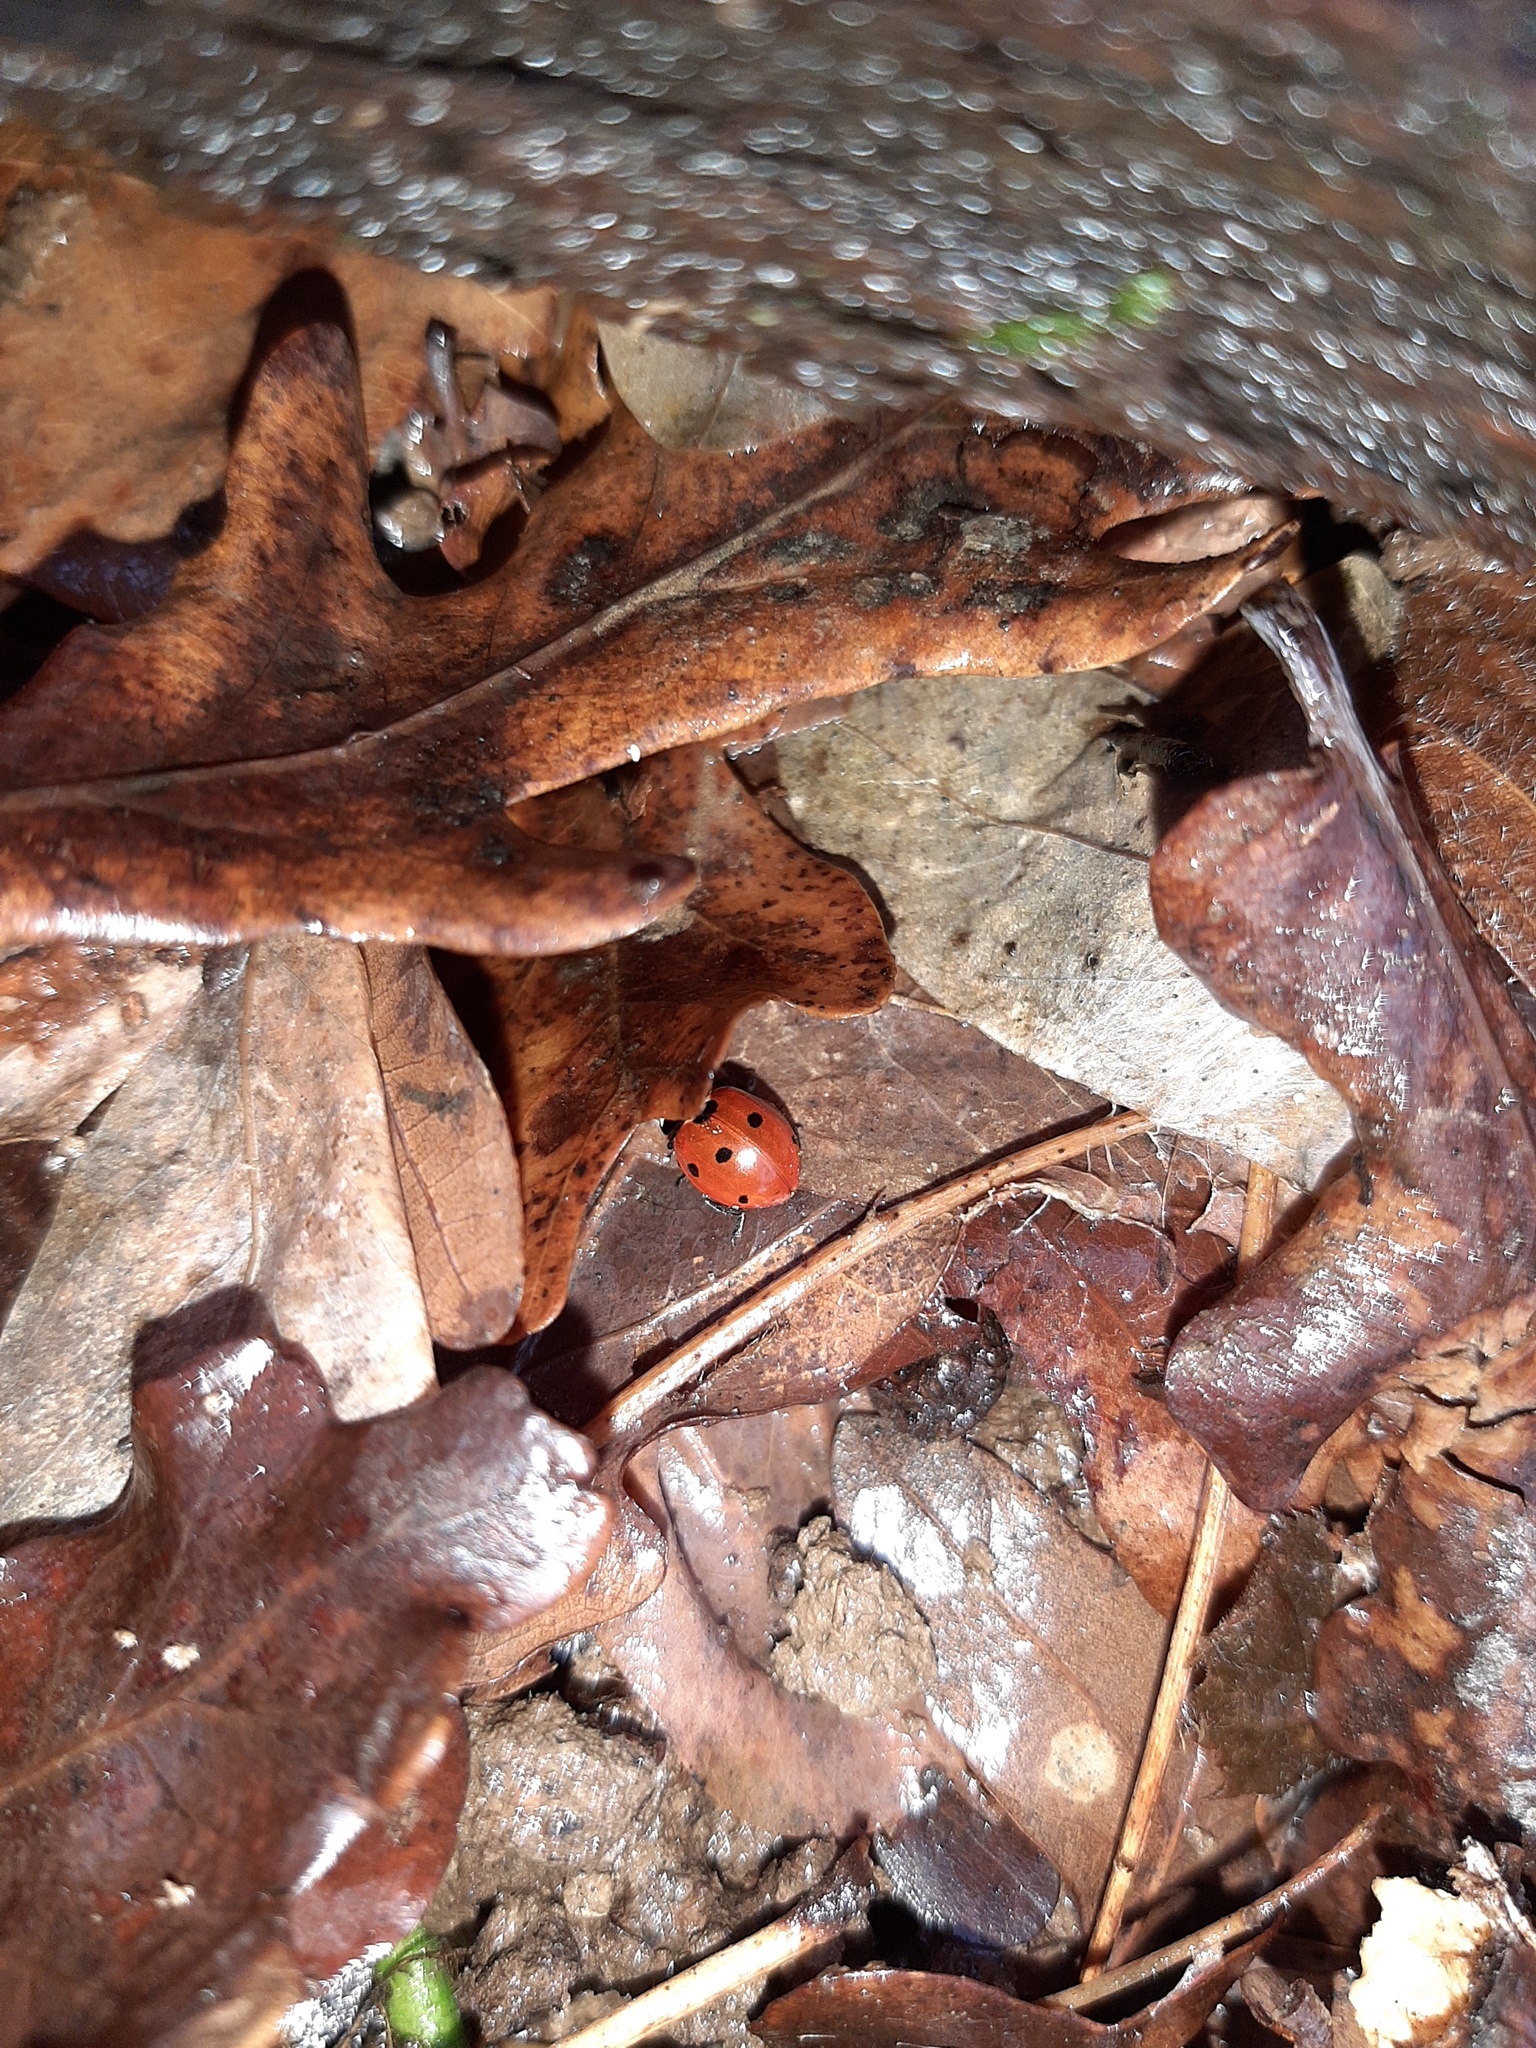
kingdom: Animalia
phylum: Arthropoda
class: Insecta
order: Coleoptera
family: Coccinellidae
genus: Coccinella
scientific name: Coccinella septempunctata
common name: Sevenspotted lady beetle
